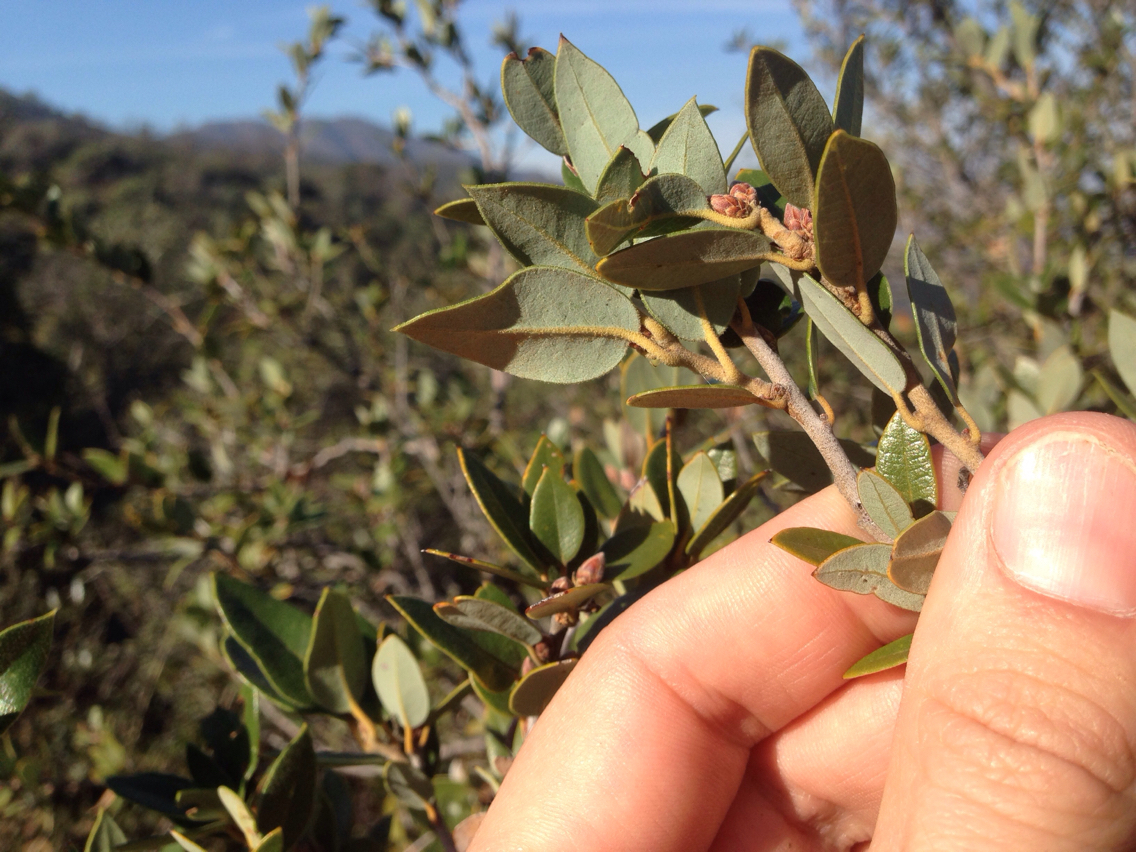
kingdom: Plantae
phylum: Tracheophyta
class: Magnoliopsida
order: Fagales
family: Fagaceae
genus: Quercus
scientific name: Quercus chrysolepis
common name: Canyon live oak
